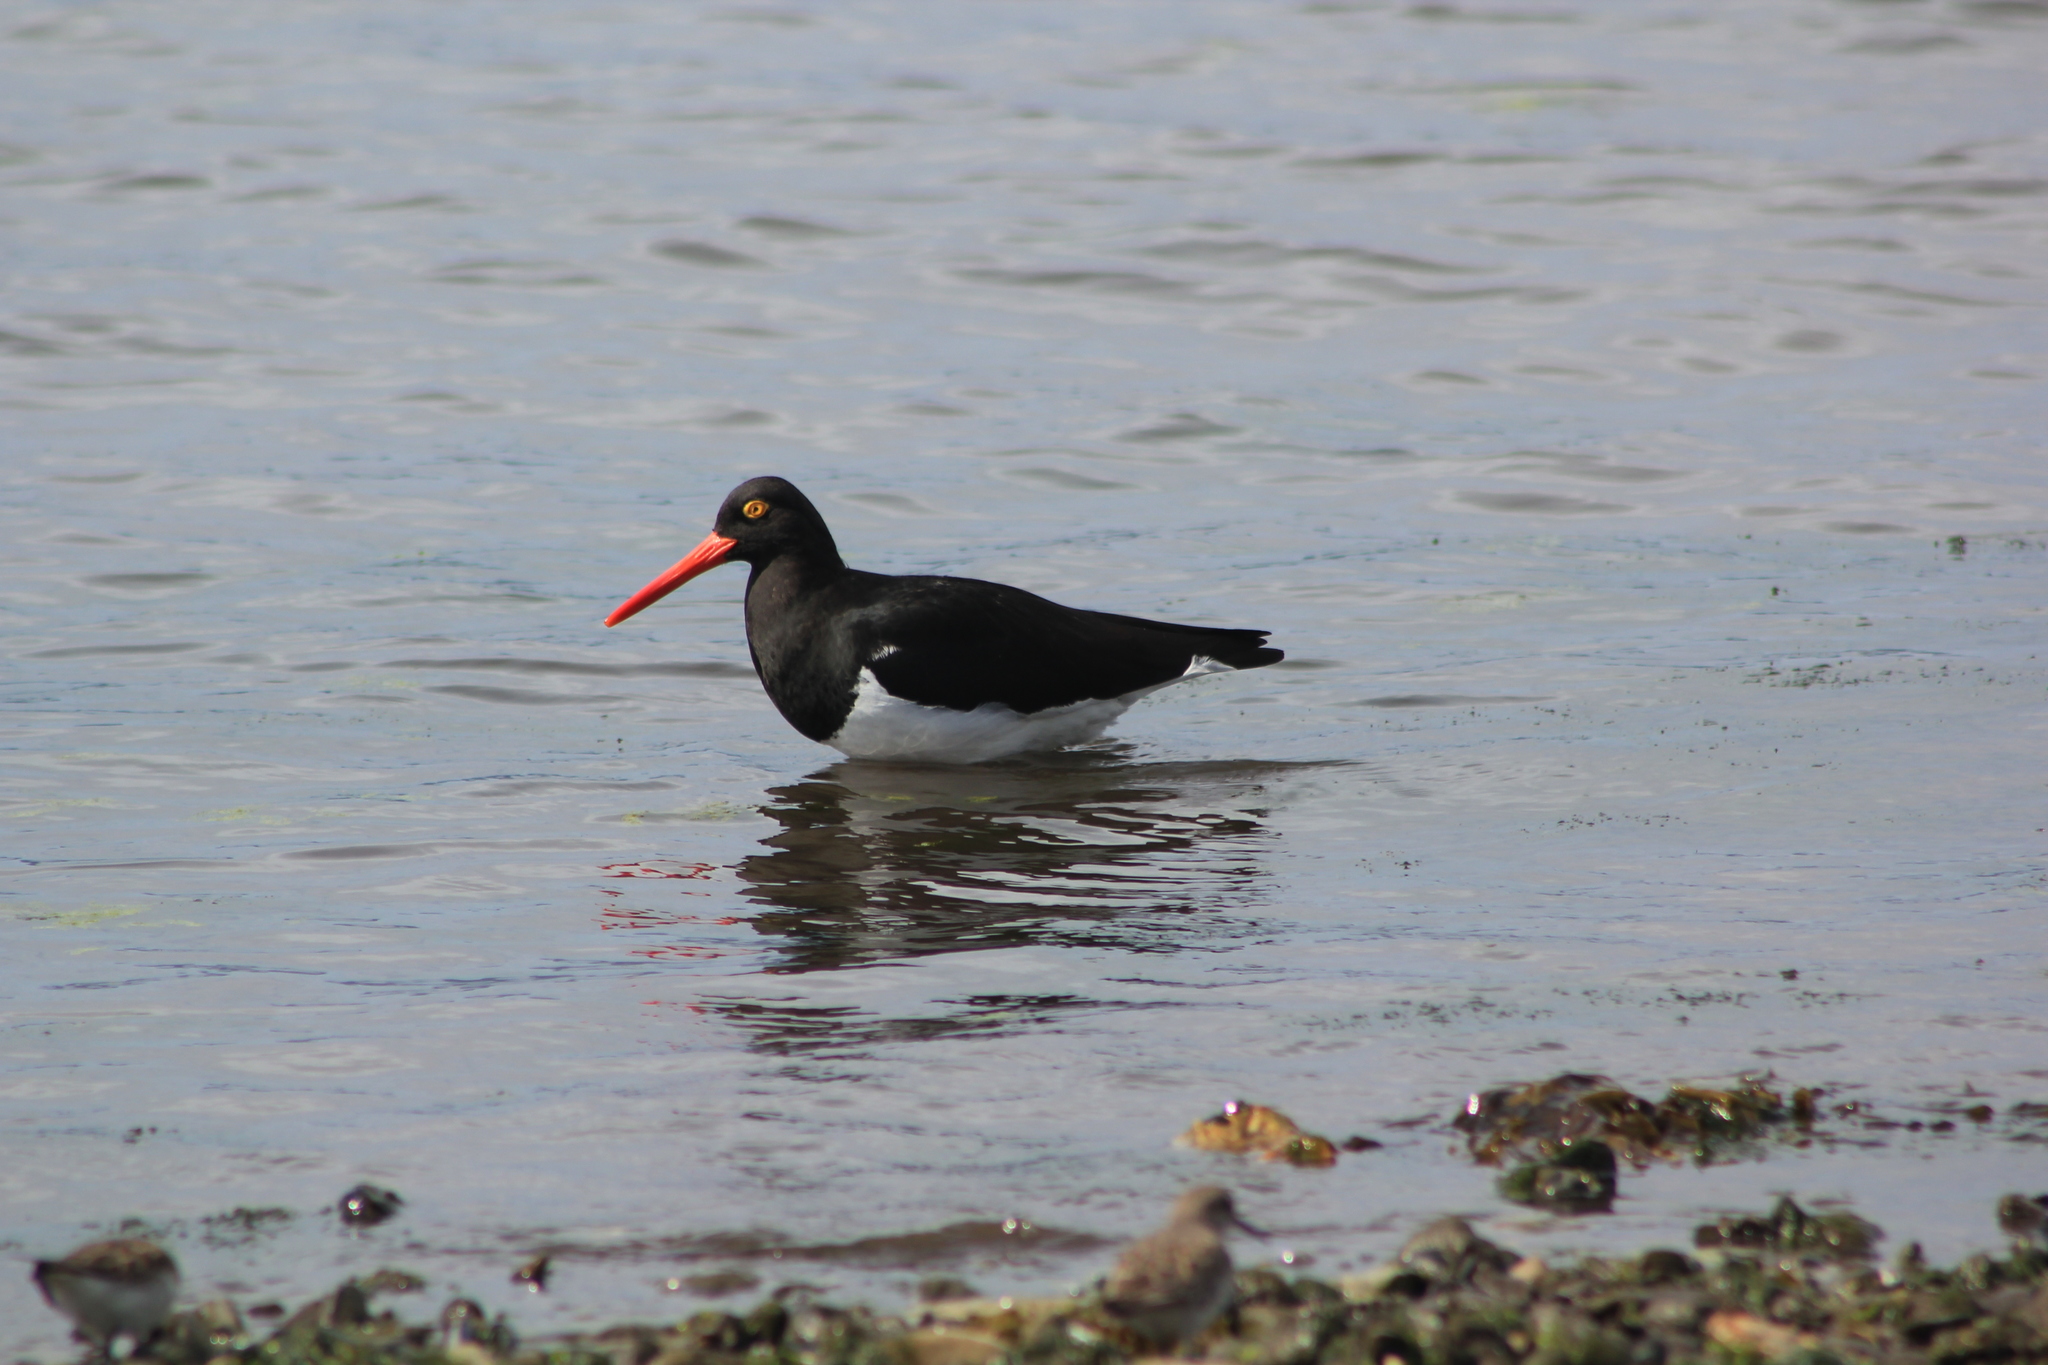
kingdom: Animalia
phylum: Chordata
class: Aves
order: Charadriiformes
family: Haematopodidae
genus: Haematopus
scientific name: Haematopus leucopodus
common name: Magellanic oystercatcher
